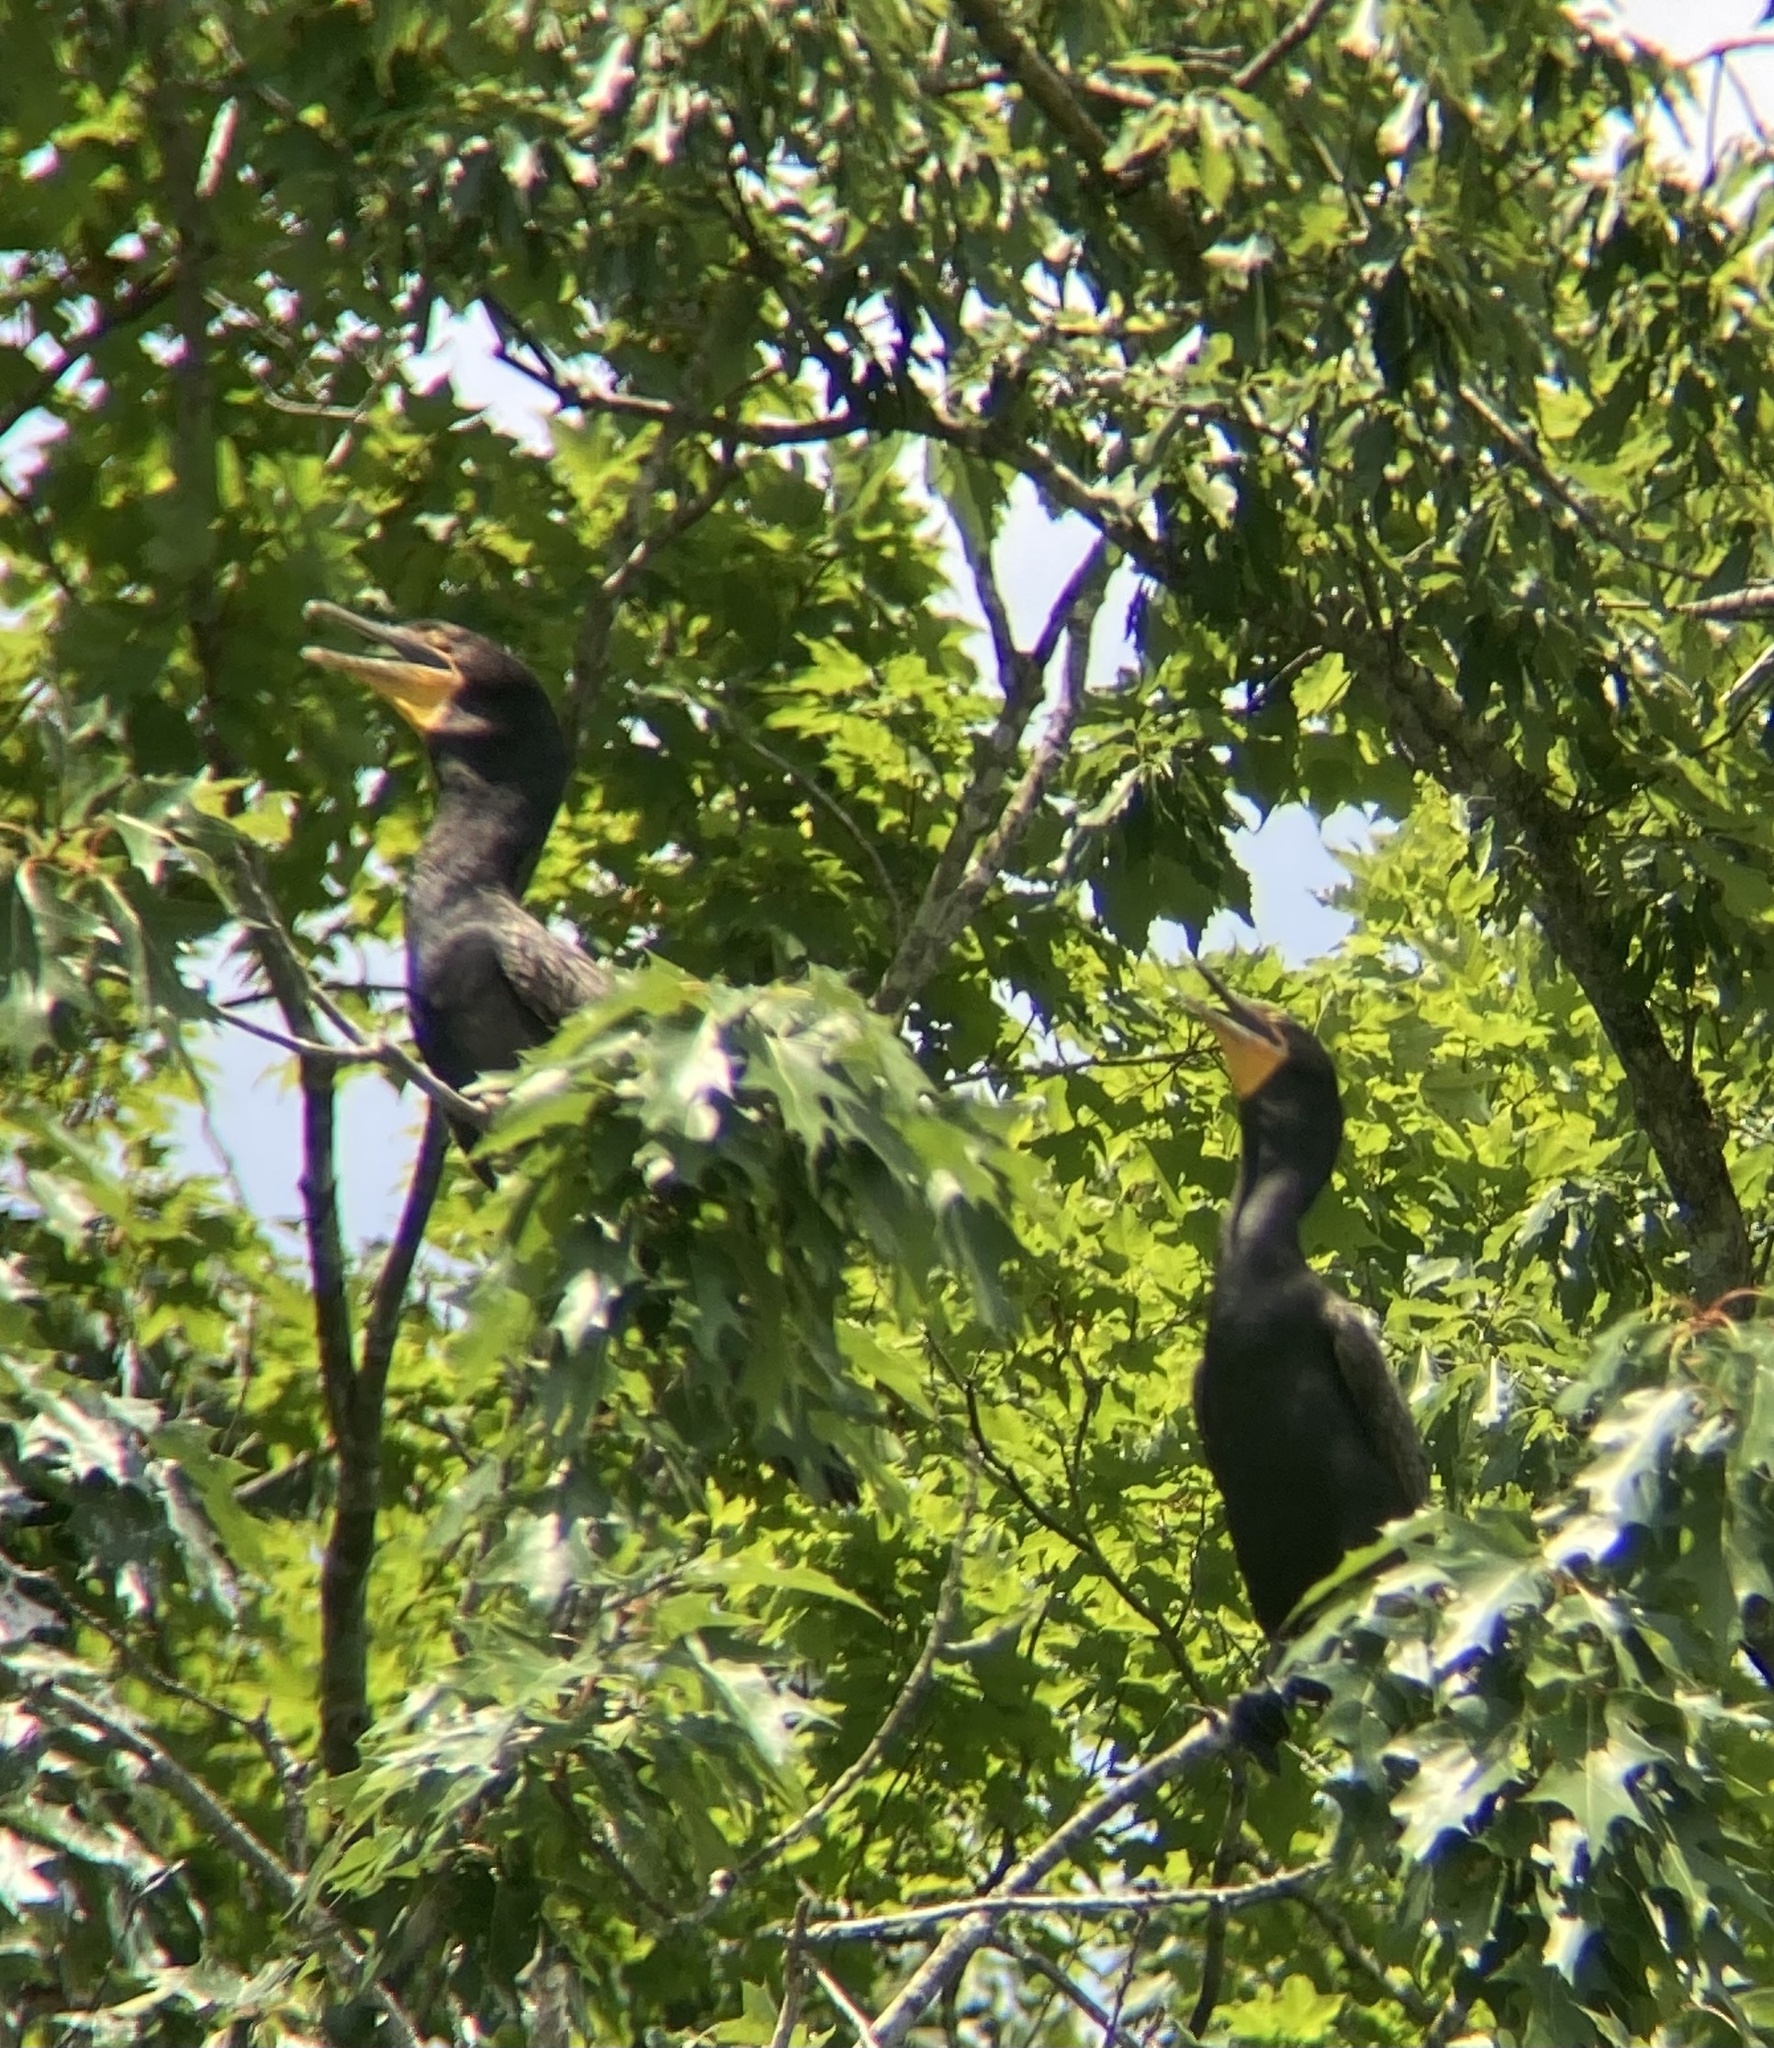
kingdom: Animalia
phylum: Chordata
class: Aves
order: Suliformes
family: Phalacrocoracidae
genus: Phalacrocorax
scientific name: Phalacrocorax auritus
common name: Double-crested cormorant
